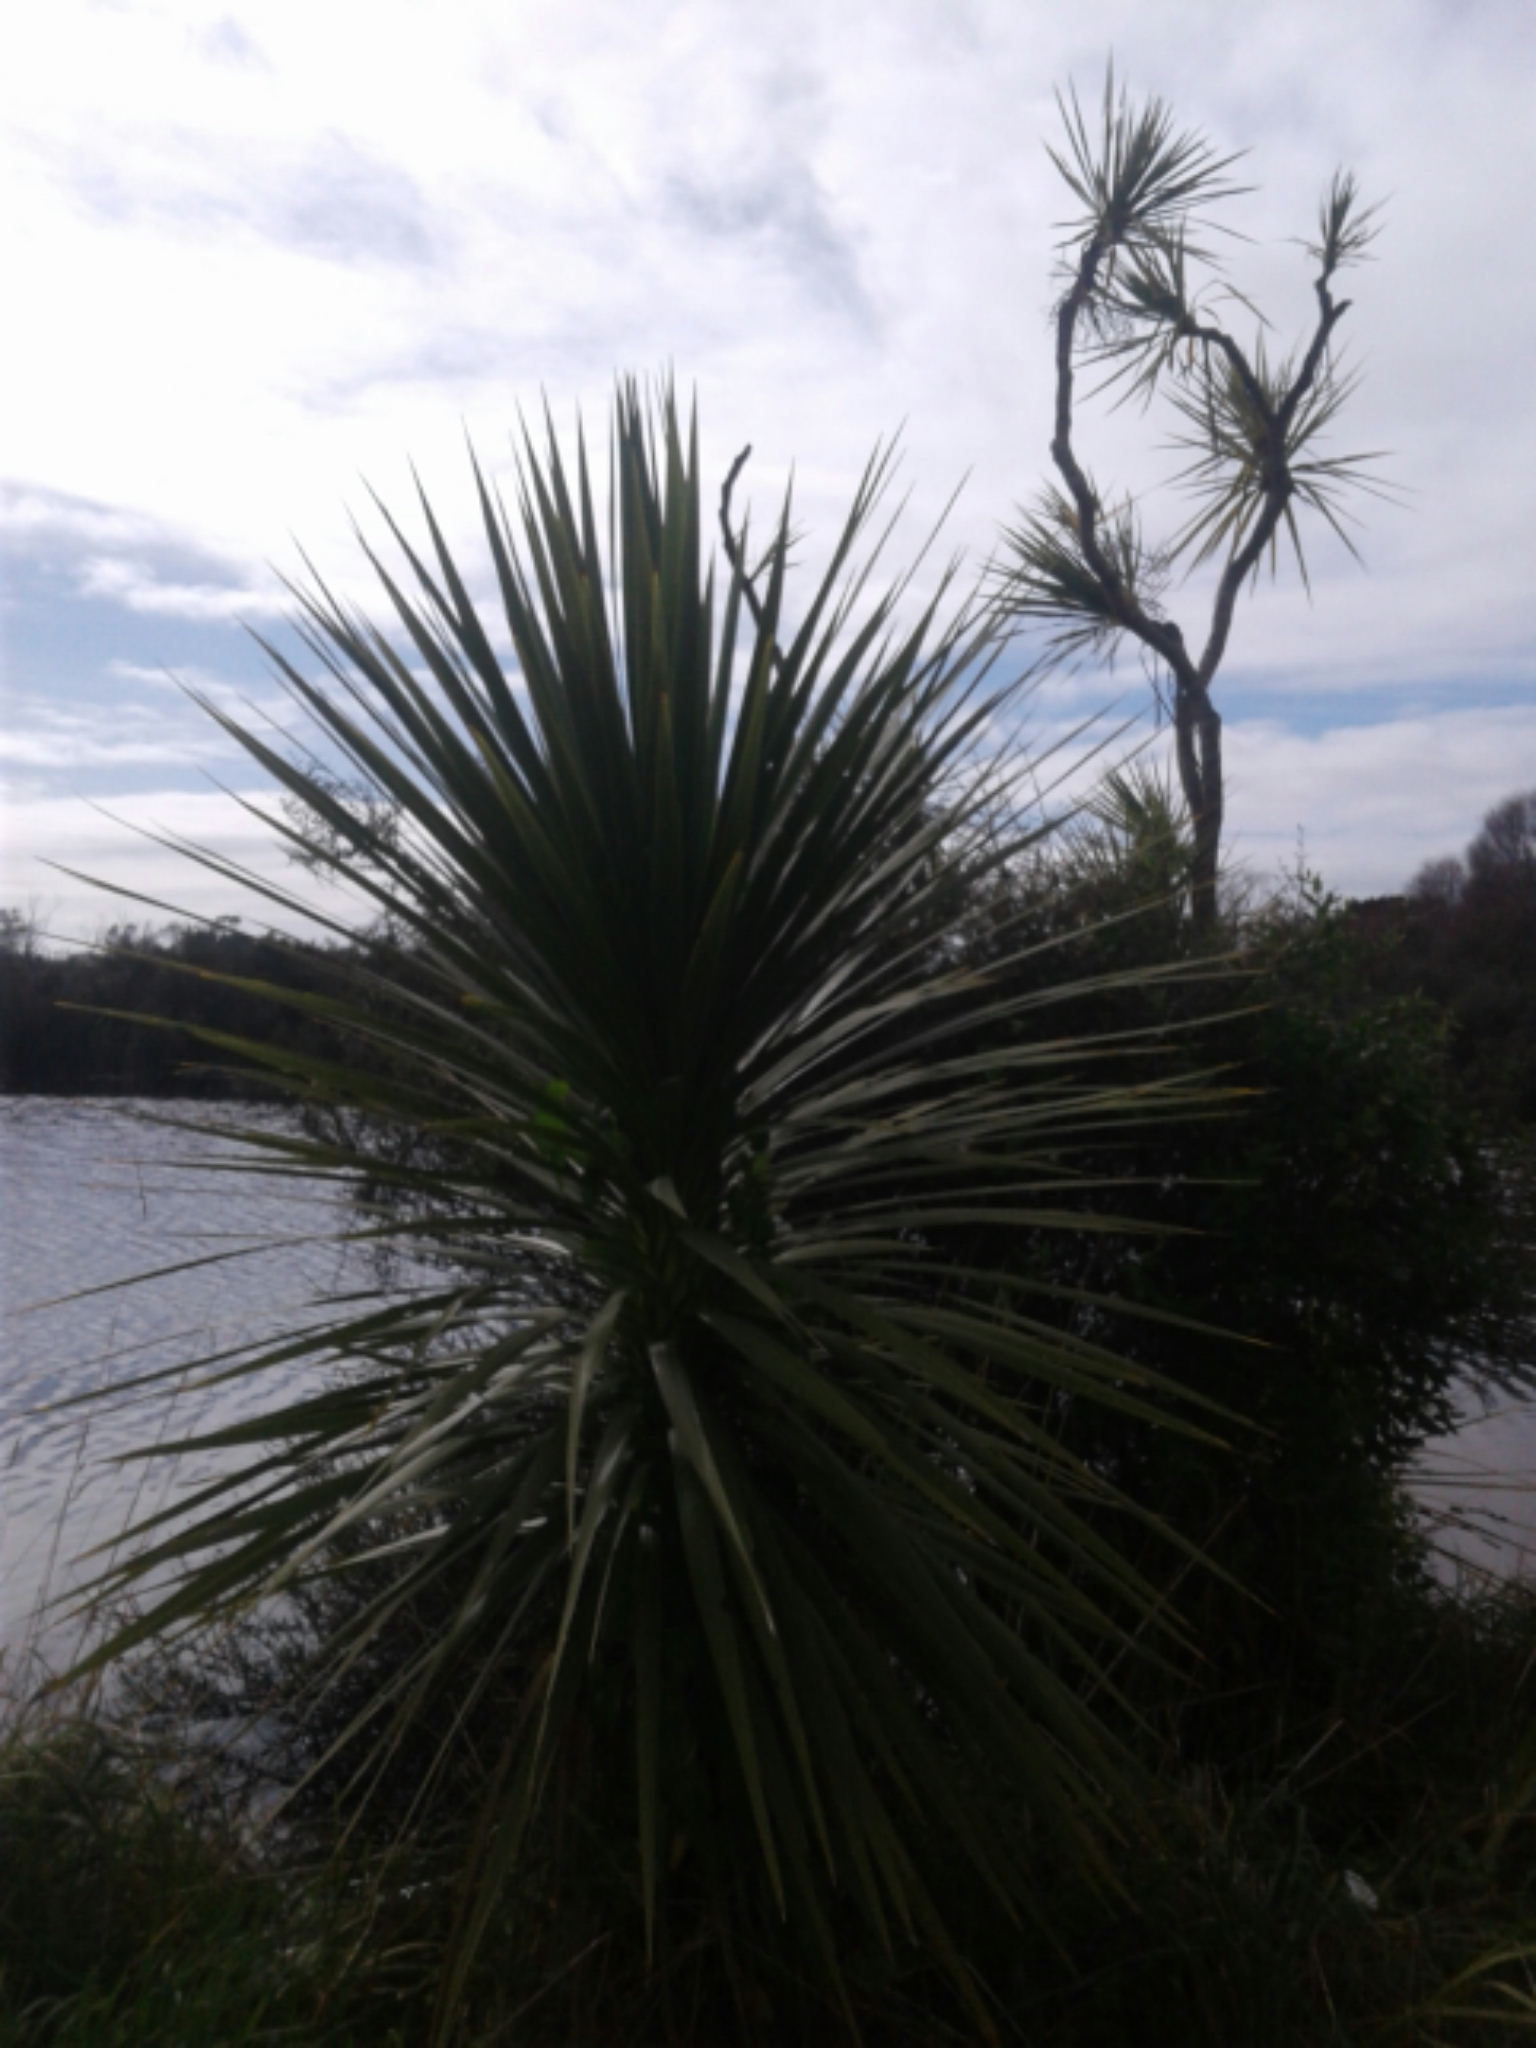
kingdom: Plantae
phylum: Tracheophyta
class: Liliopsida
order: Asparagales
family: Asparagaceae
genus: Cordyline
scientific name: Cordyline australis
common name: Cabbage-palm
